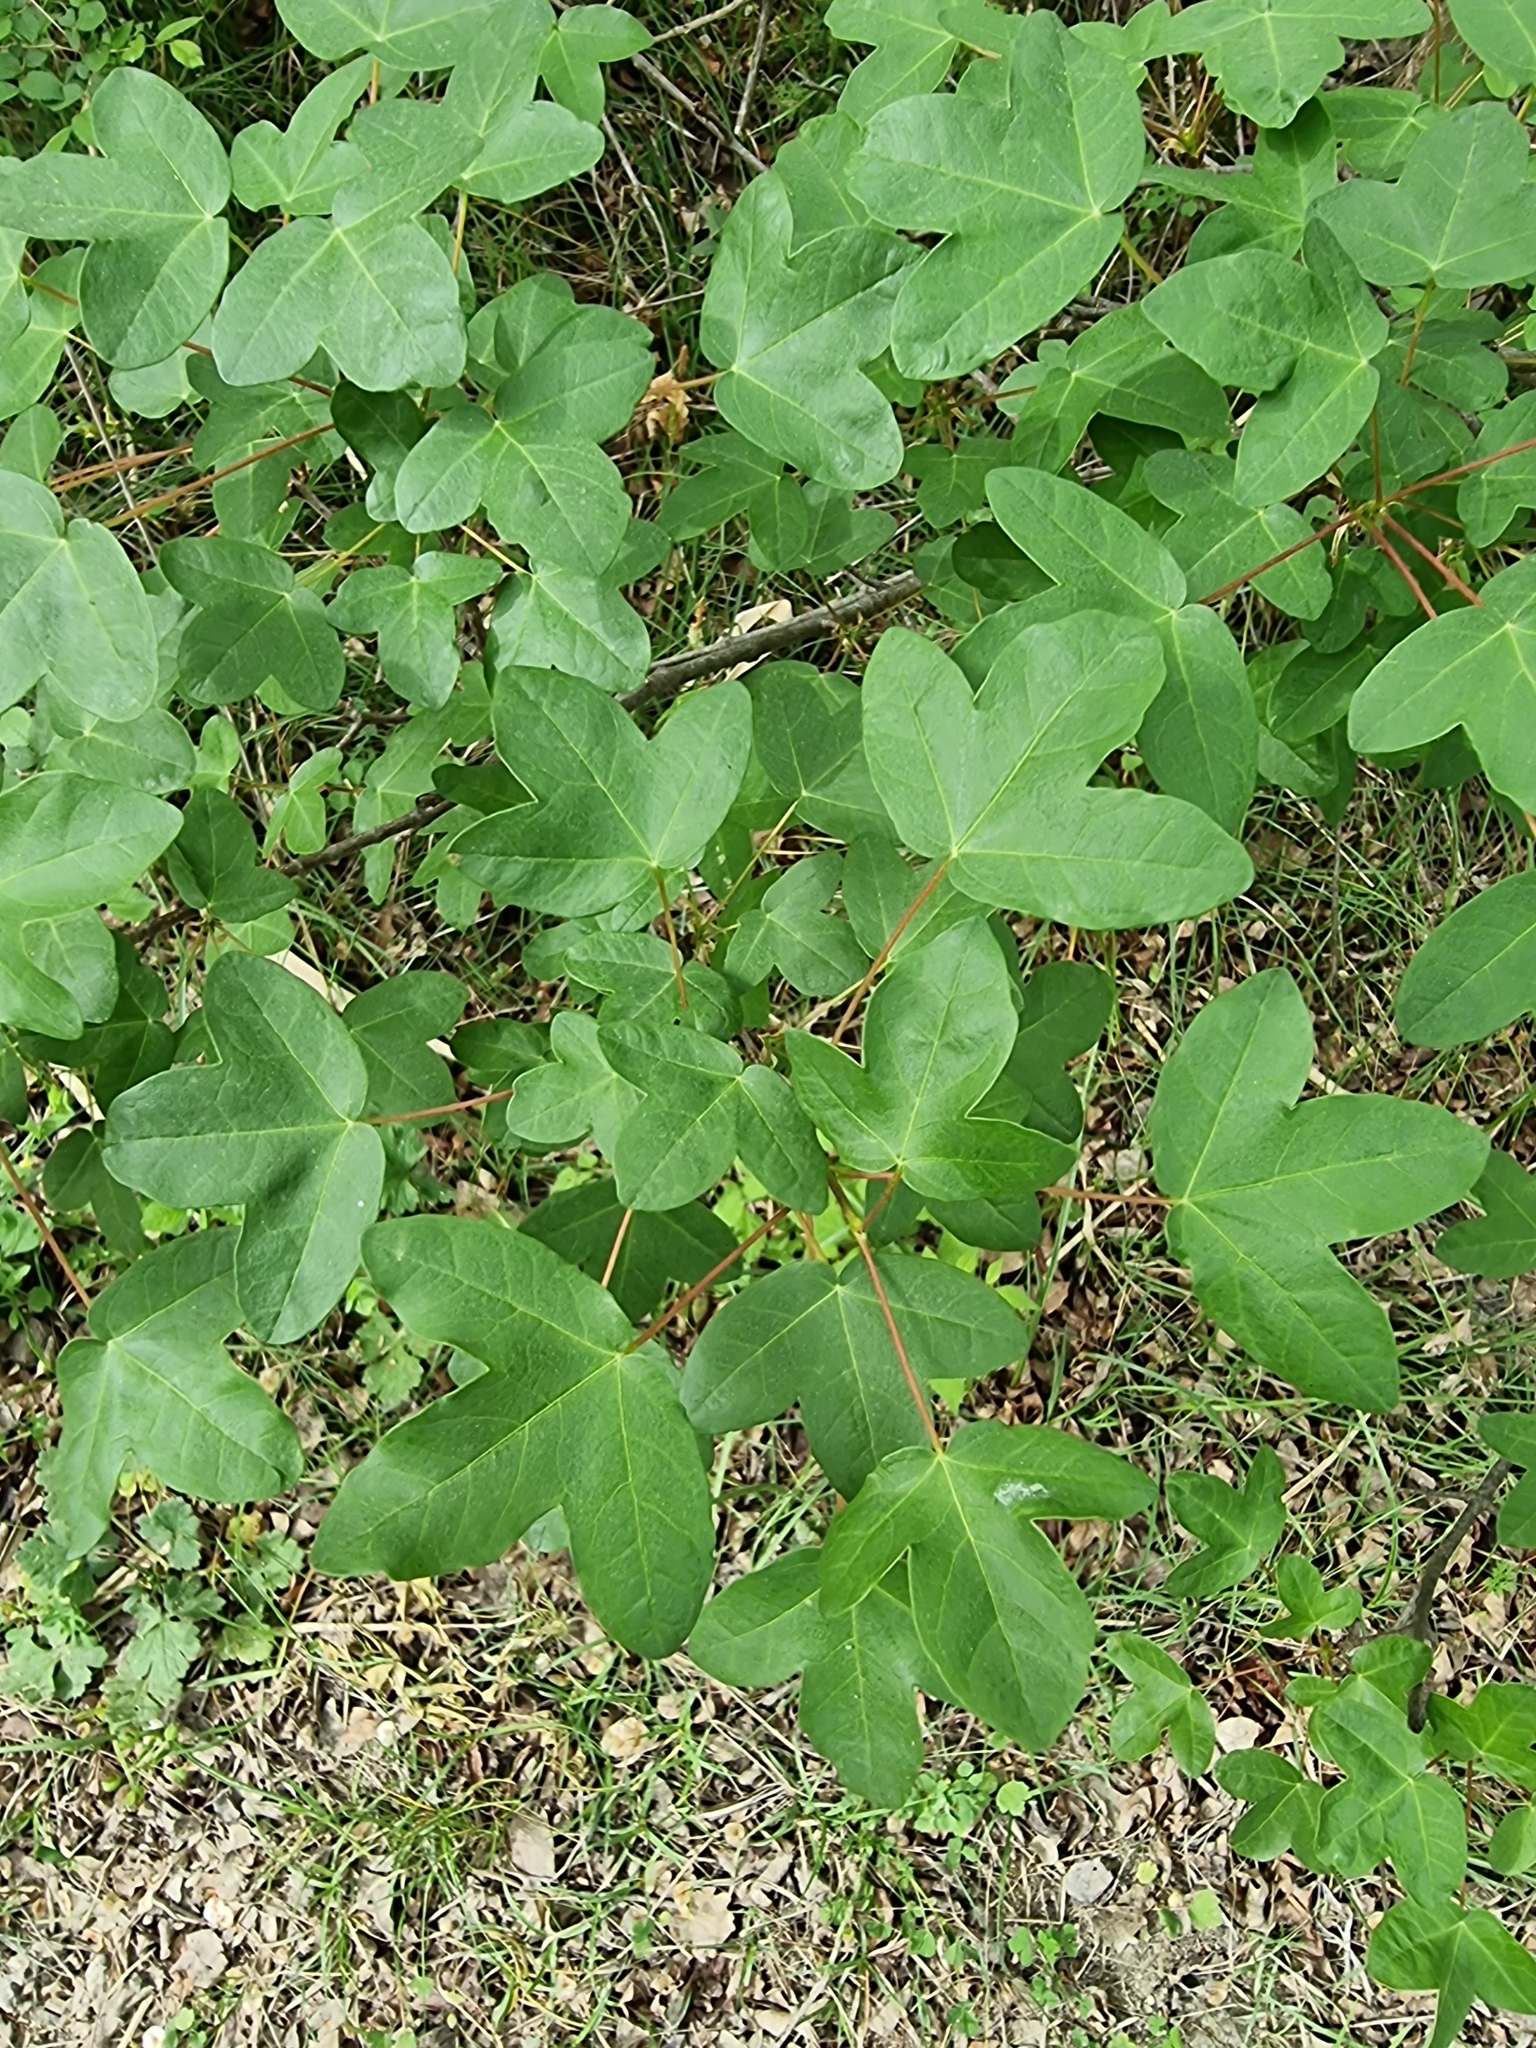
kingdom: Plantae
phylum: Tracheophyta
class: Magnoliopsida
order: Sapindales
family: Sapindaceae
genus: Acer
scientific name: Acer monspessulanum
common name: Montpellier maple
